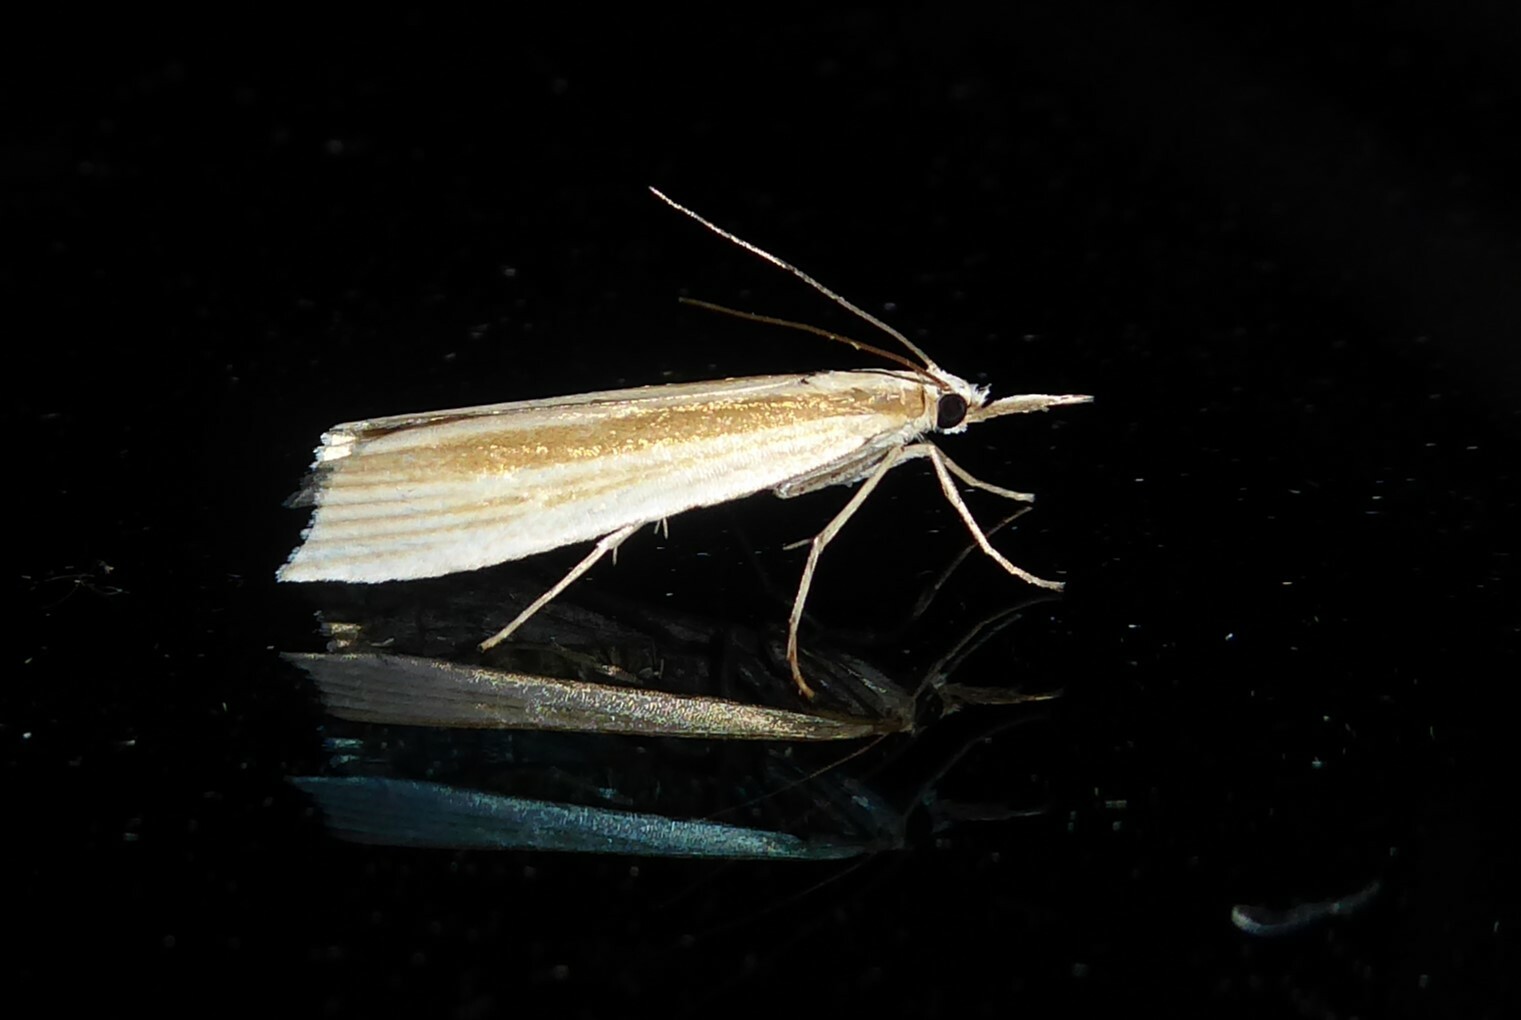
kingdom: Animalia
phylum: Arthropoda
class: Insecta
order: Lepidoptera
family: Crambidae
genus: Orocrambus
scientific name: Orocrambus angustipennis
